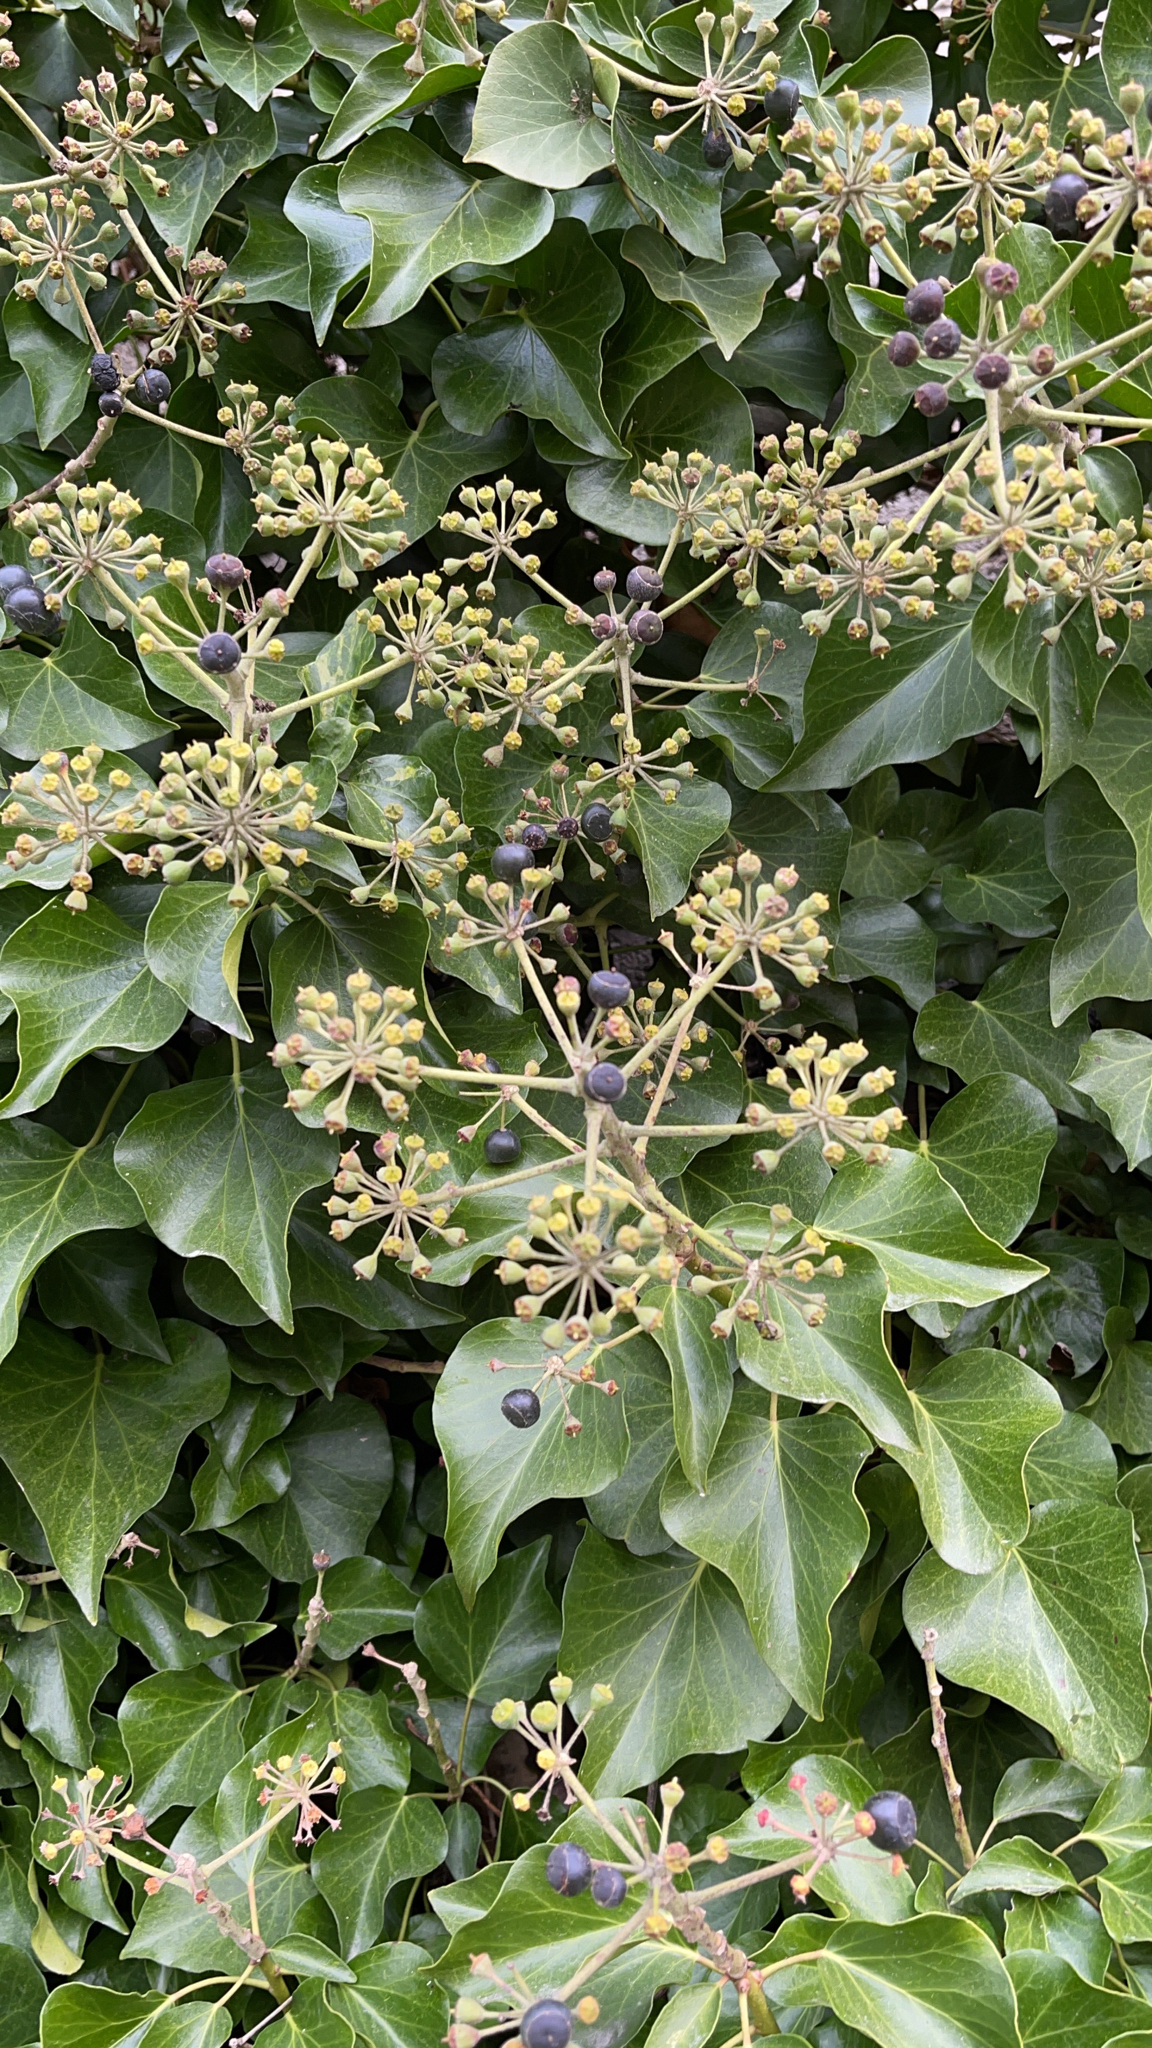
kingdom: Plantae
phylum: Tracheophyta
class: Magnoliopsida
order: Apiales
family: Araliaceae
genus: Hedera
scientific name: Hedera helix
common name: Ivy
